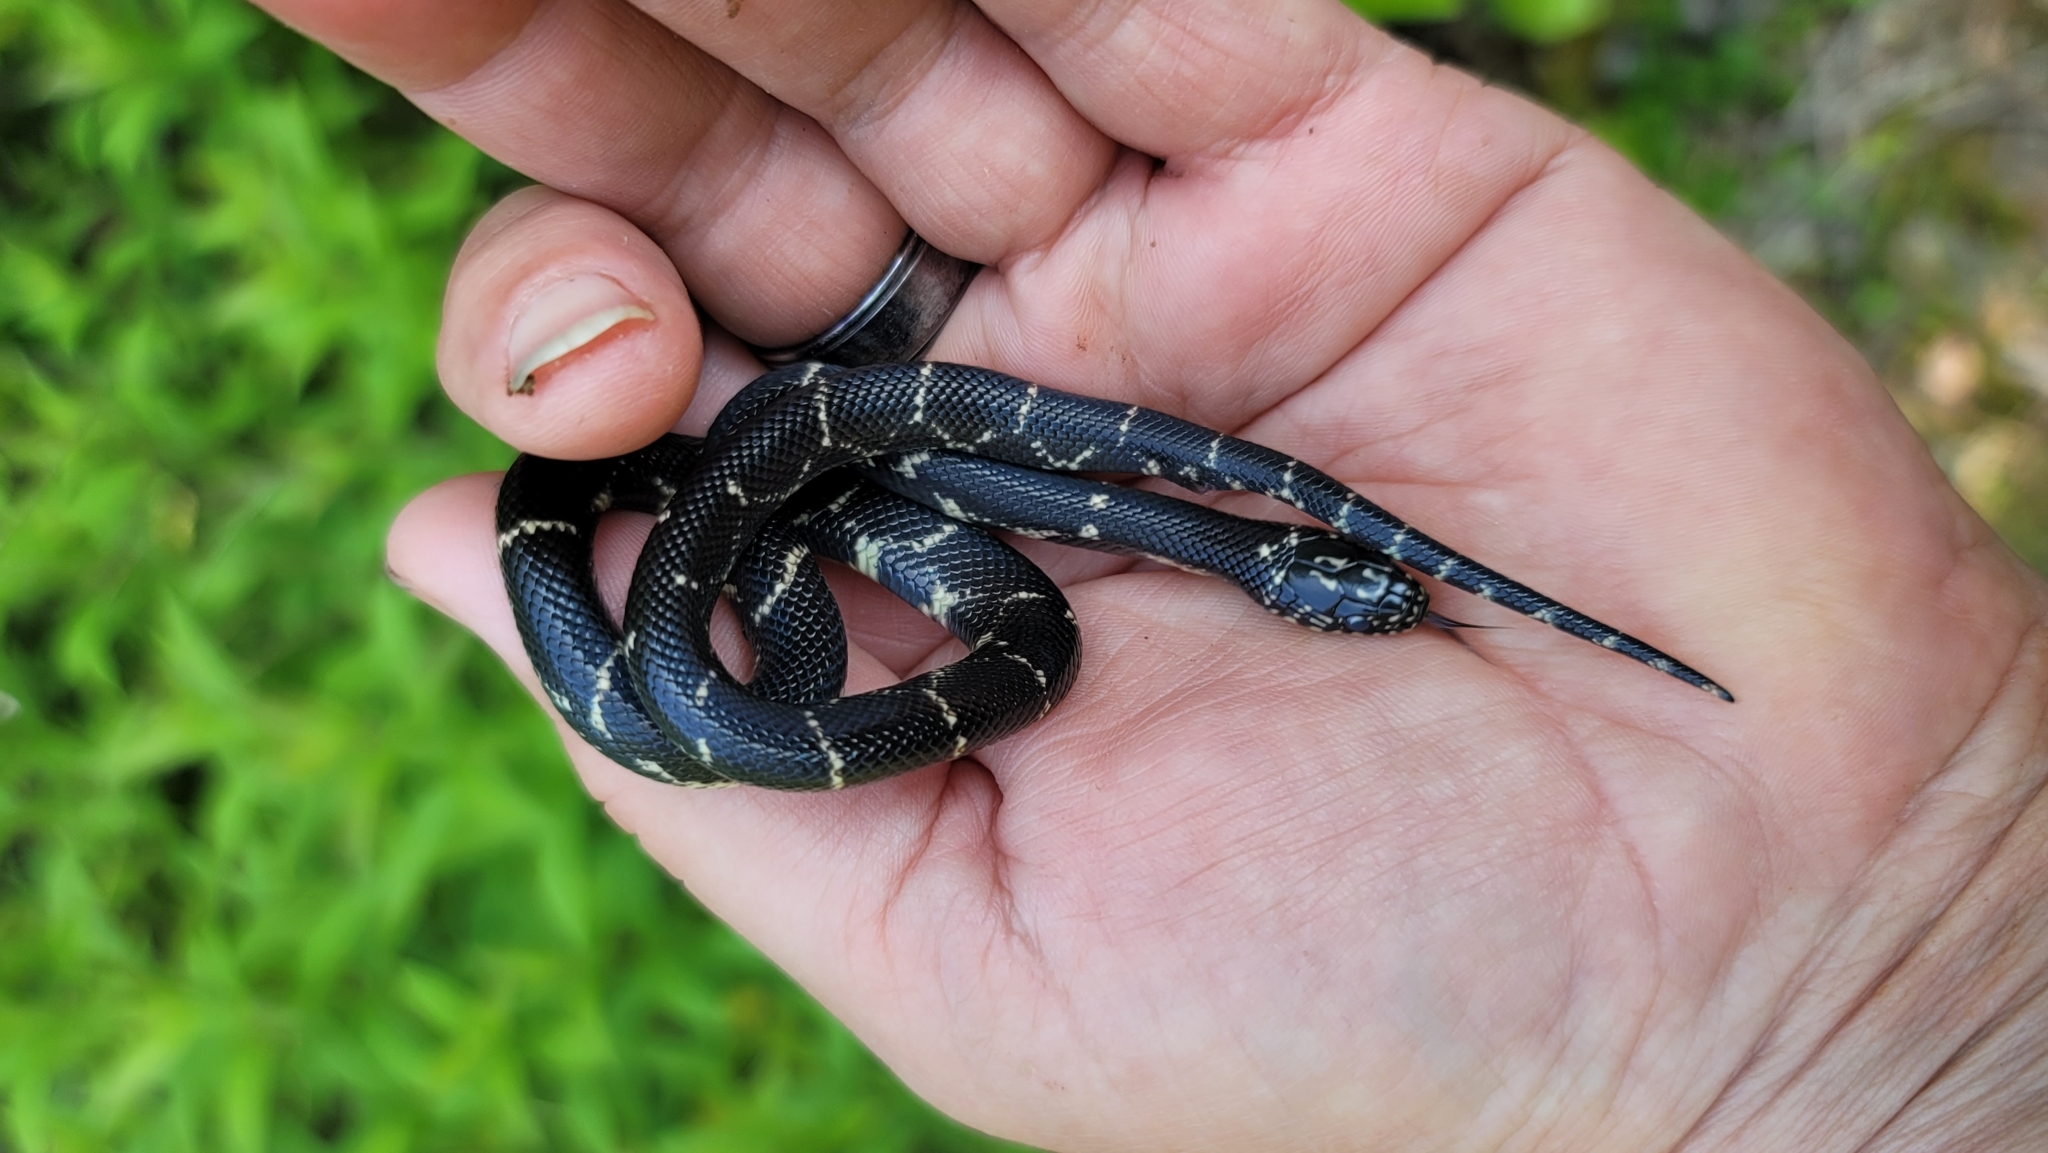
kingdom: Animalia
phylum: Chordata
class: Squamata
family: Colubridae
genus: Lampropeltis
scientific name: Lampropeltis getula
